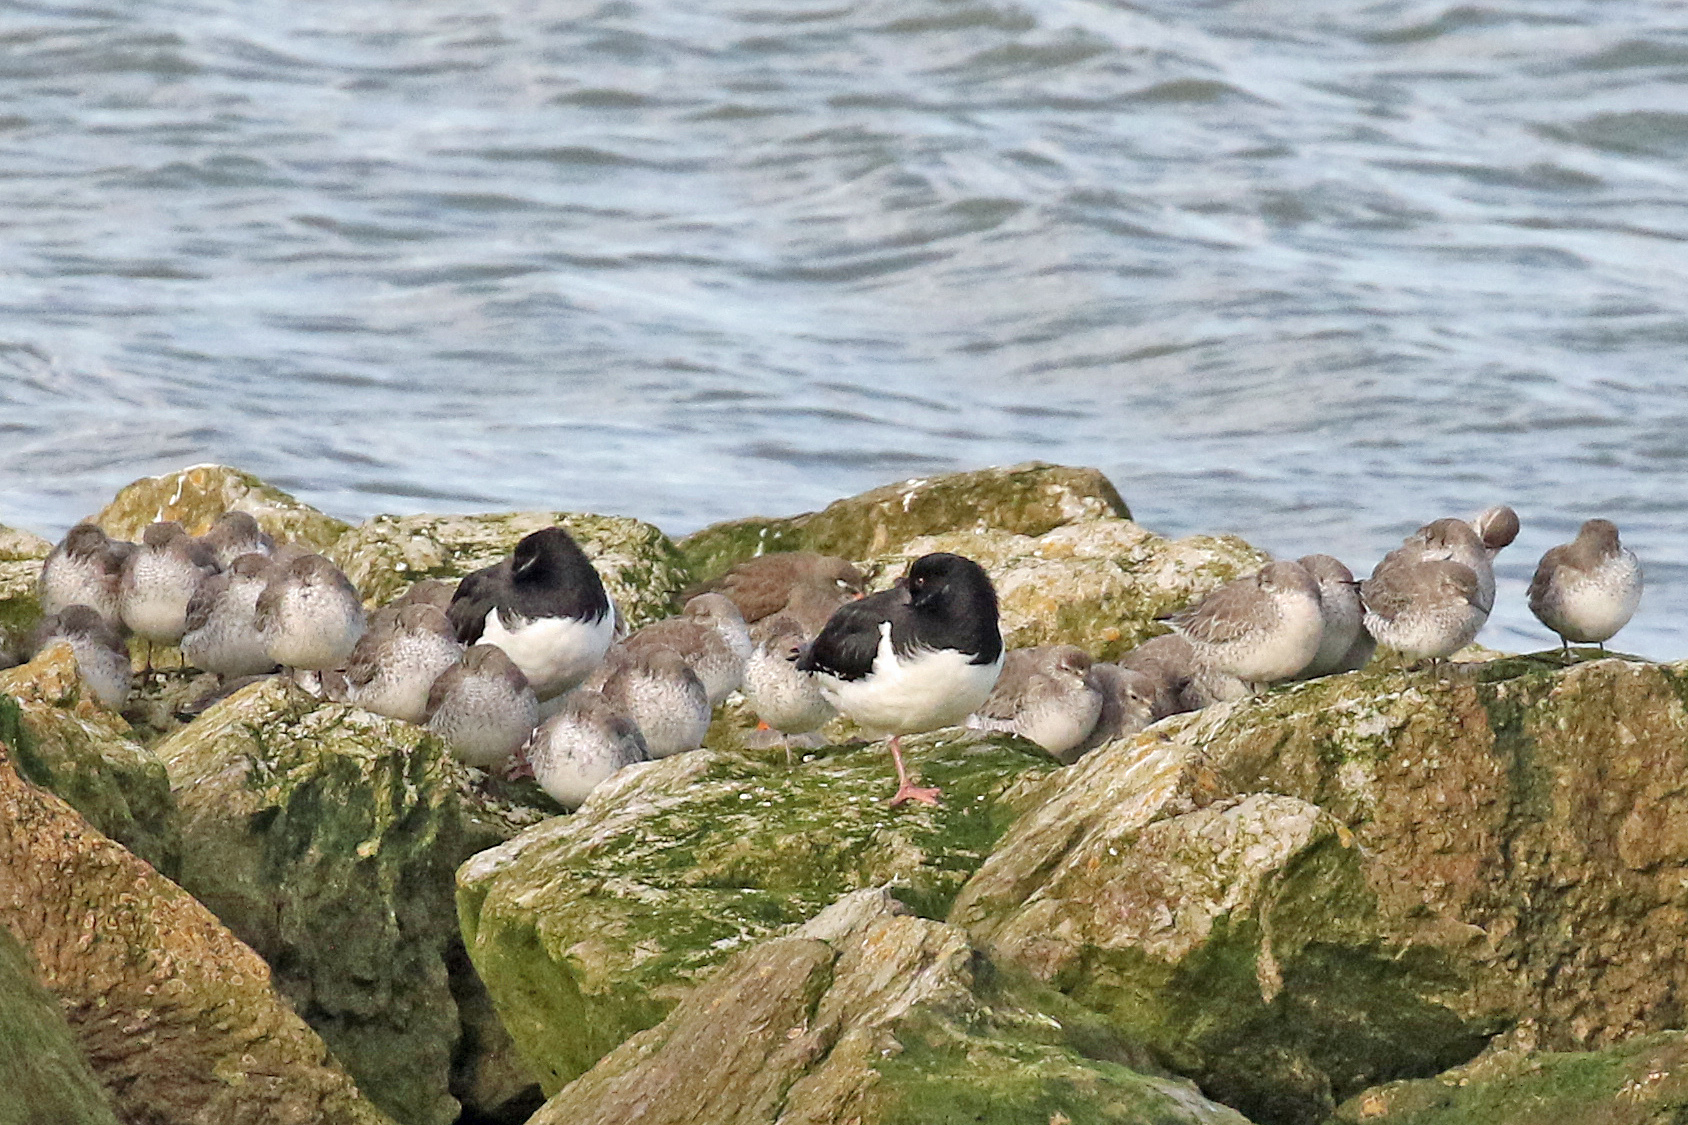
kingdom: Animalia
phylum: Chordata
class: Aves
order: Charadriiformes
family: Scolopacidae
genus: Calidris
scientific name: Calidris canutus
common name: Red knot
